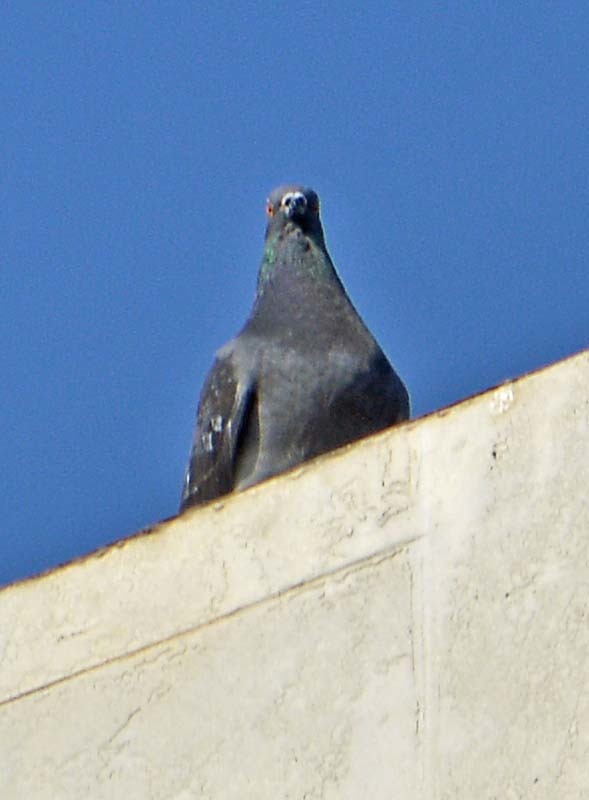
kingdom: Animalia
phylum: Chordata
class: Aves
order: Columbiformes
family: Columbidae
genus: Columba
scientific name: Columba livia
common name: Rock pigeon
